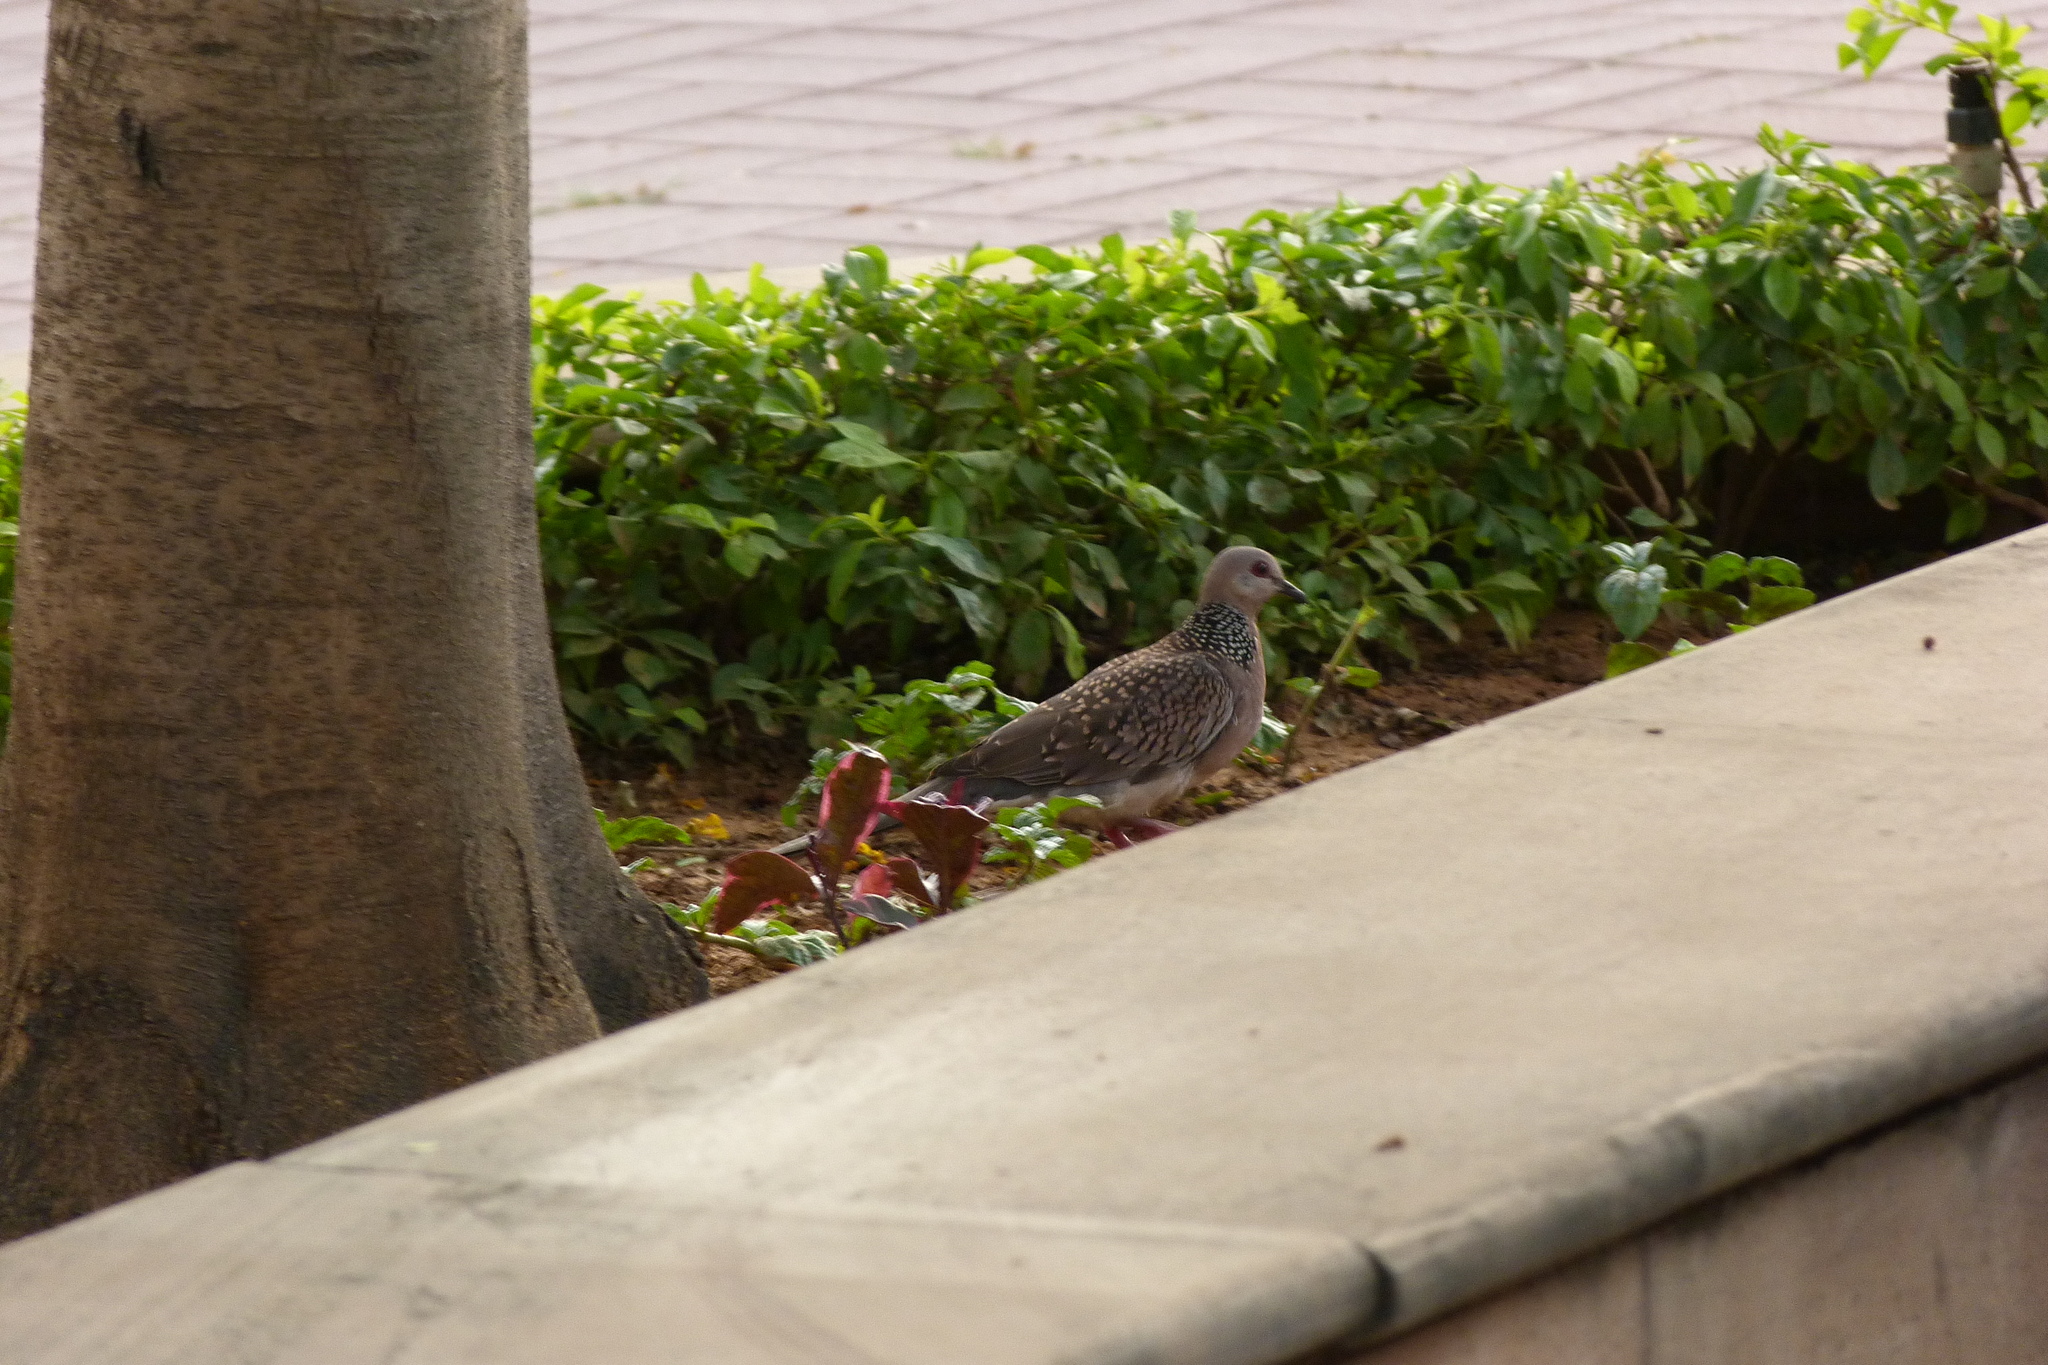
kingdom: Animalia
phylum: Chordata
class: Aves
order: Columbiformes
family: Columbidae
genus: Spilopelia
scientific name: Spilopelia chinensis
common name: Spotted dove
